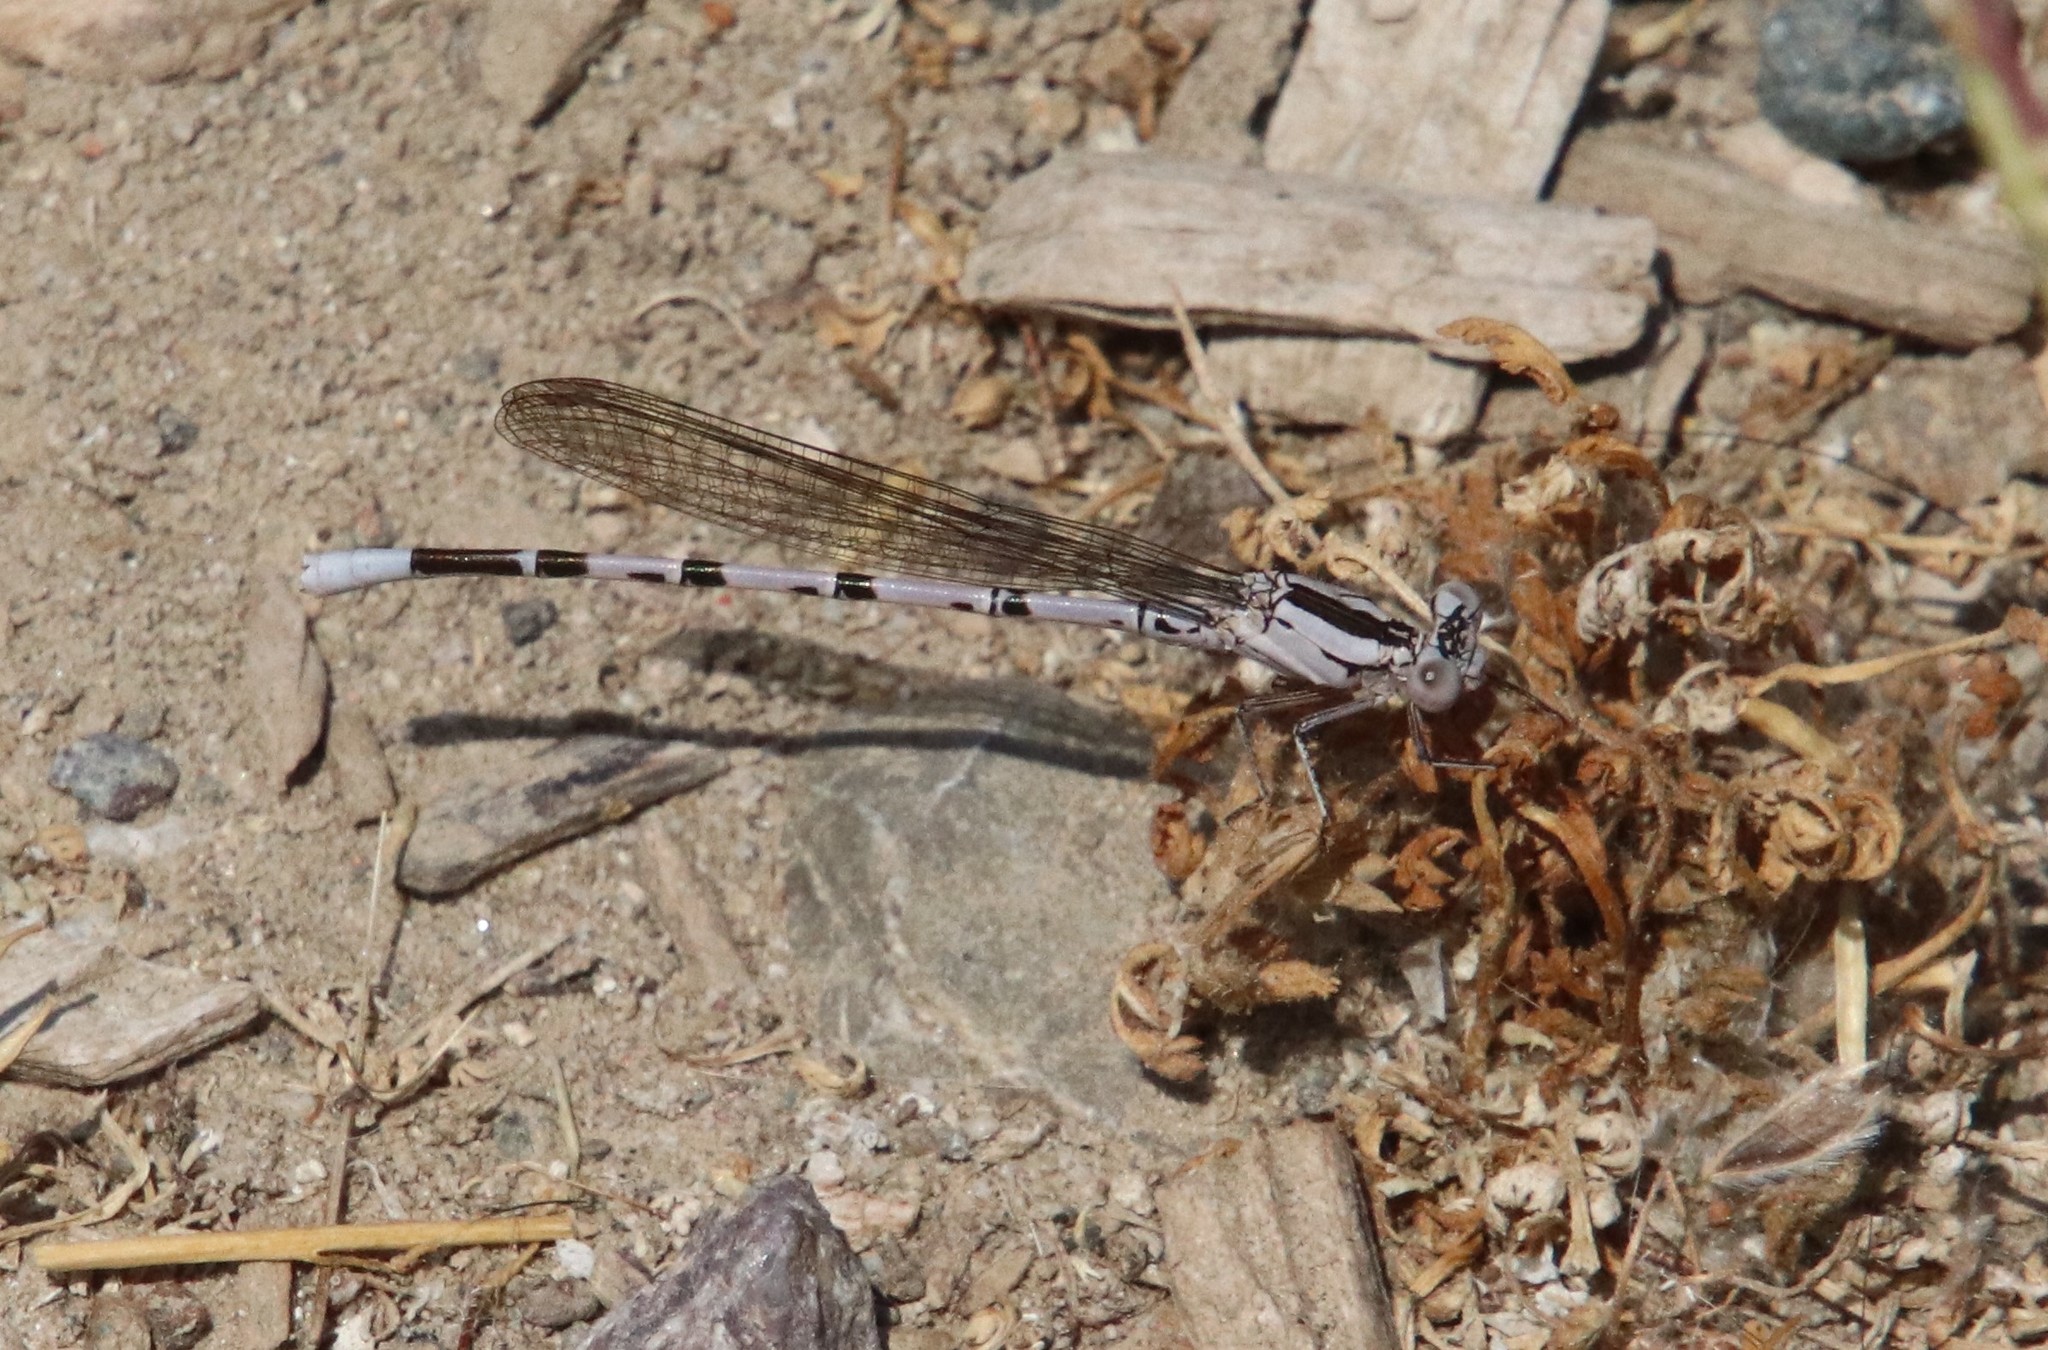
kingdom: Animalia
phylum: Arthropoda
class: Insecta
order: Odonata
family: Coenagrionidae
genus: Argia
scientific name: Argia vivida
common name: Vivid dancer
